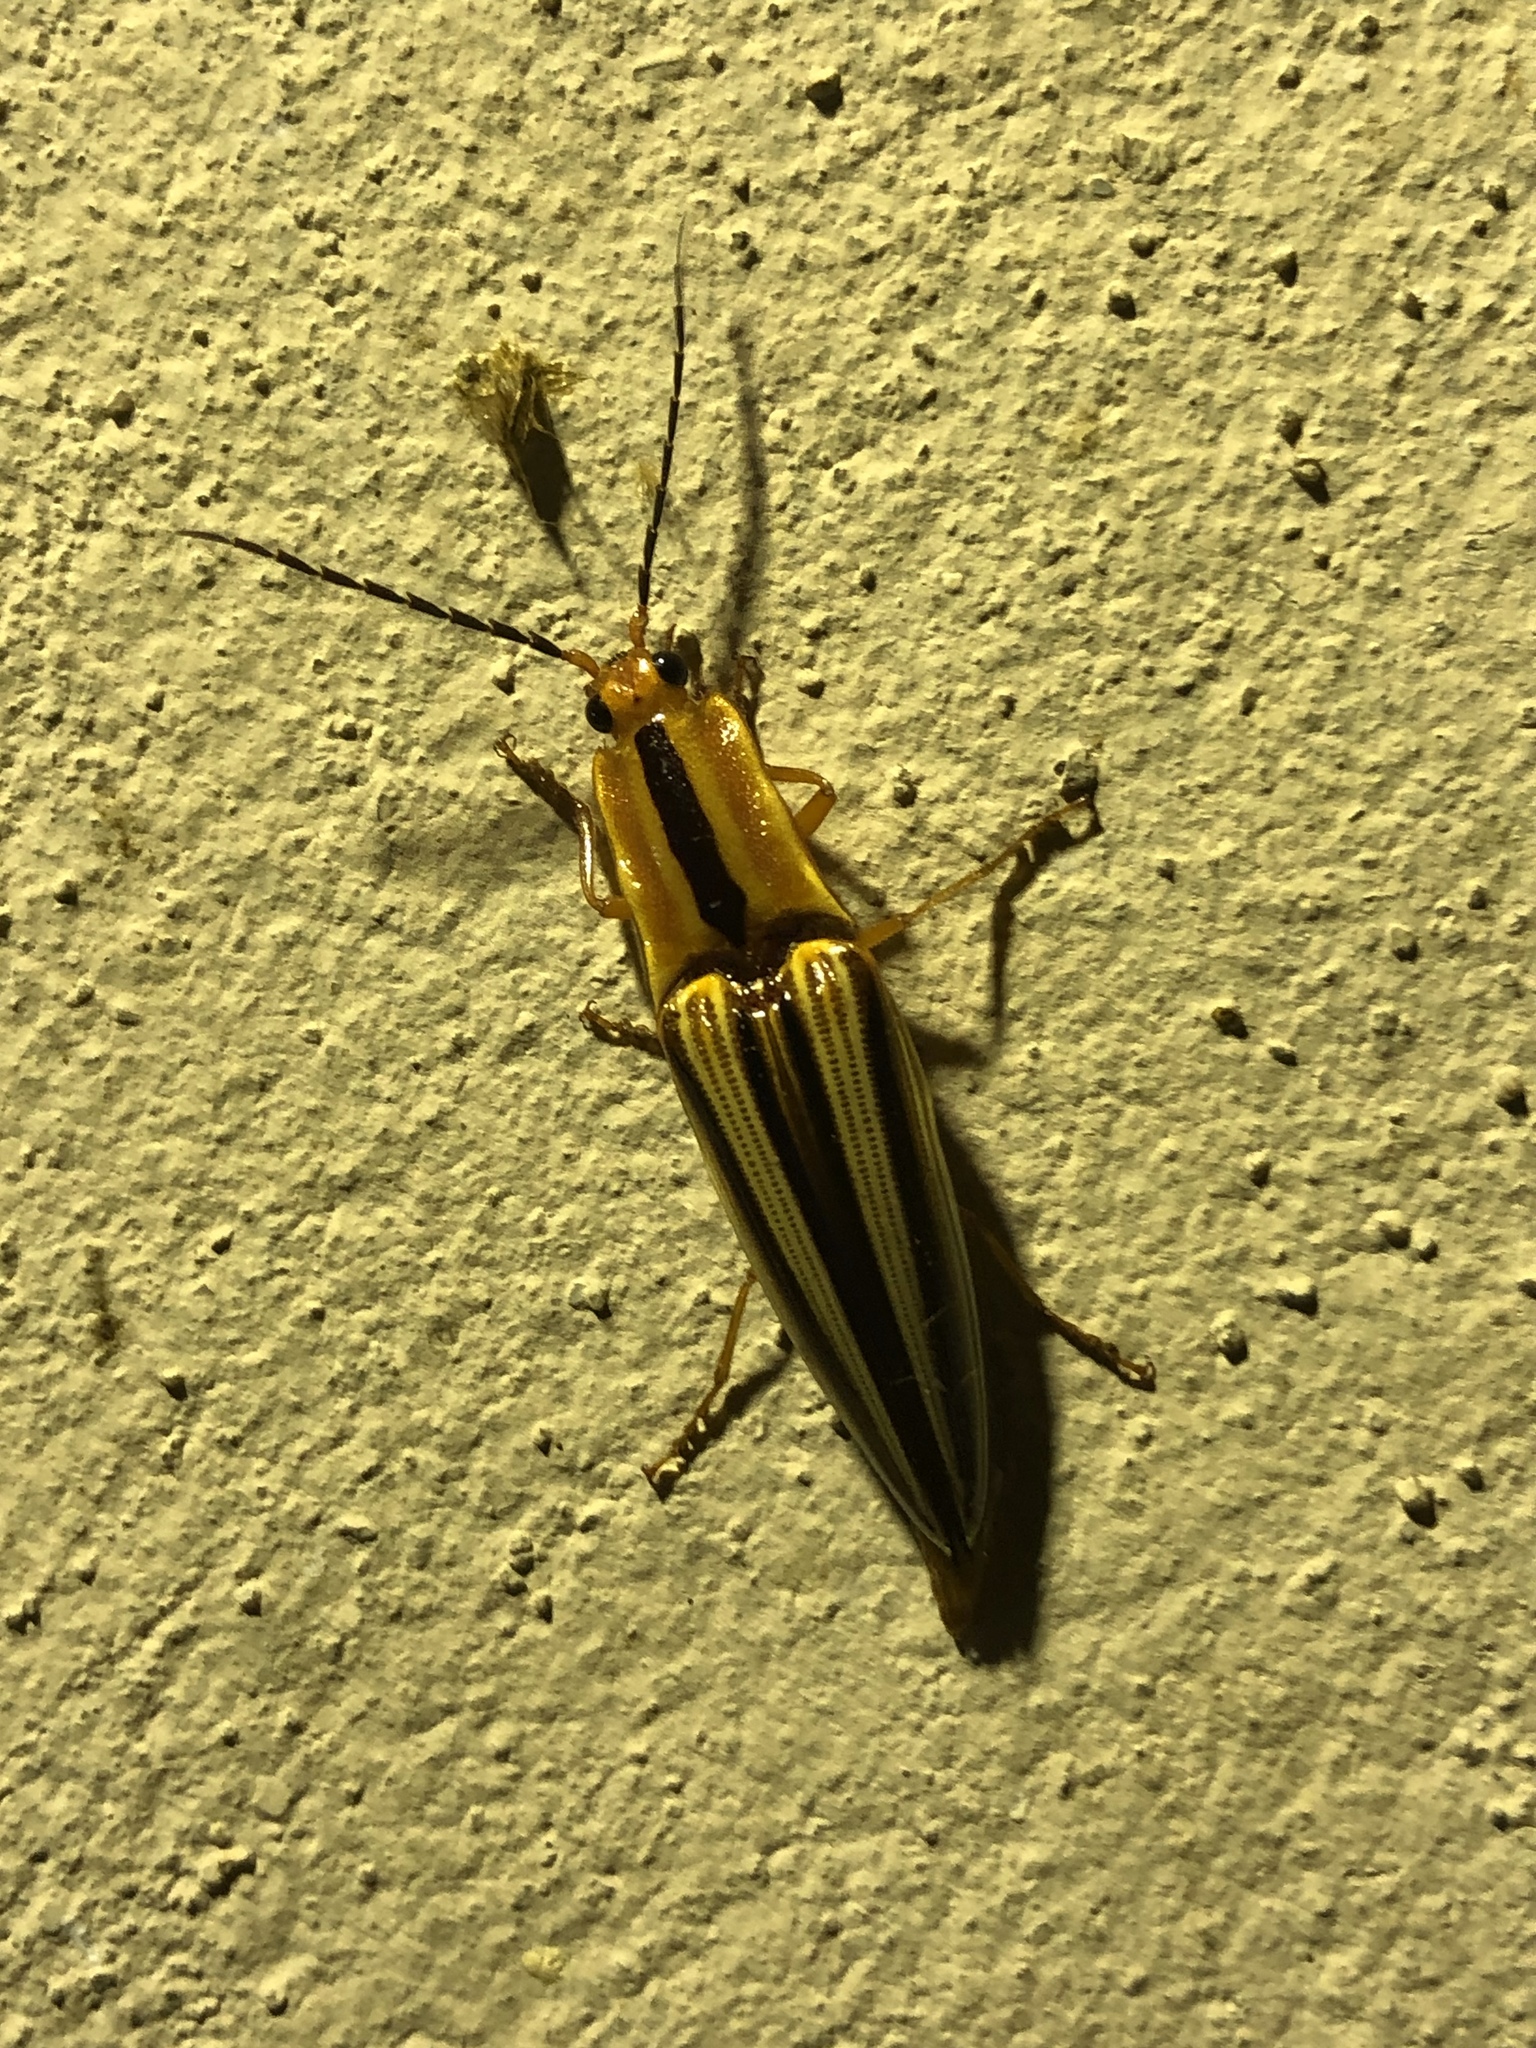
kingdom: Animalia
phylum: Arthropoda
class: Insecta
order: Coleoptera
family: Elateridae
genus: Semiotus
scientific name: Semiotus
